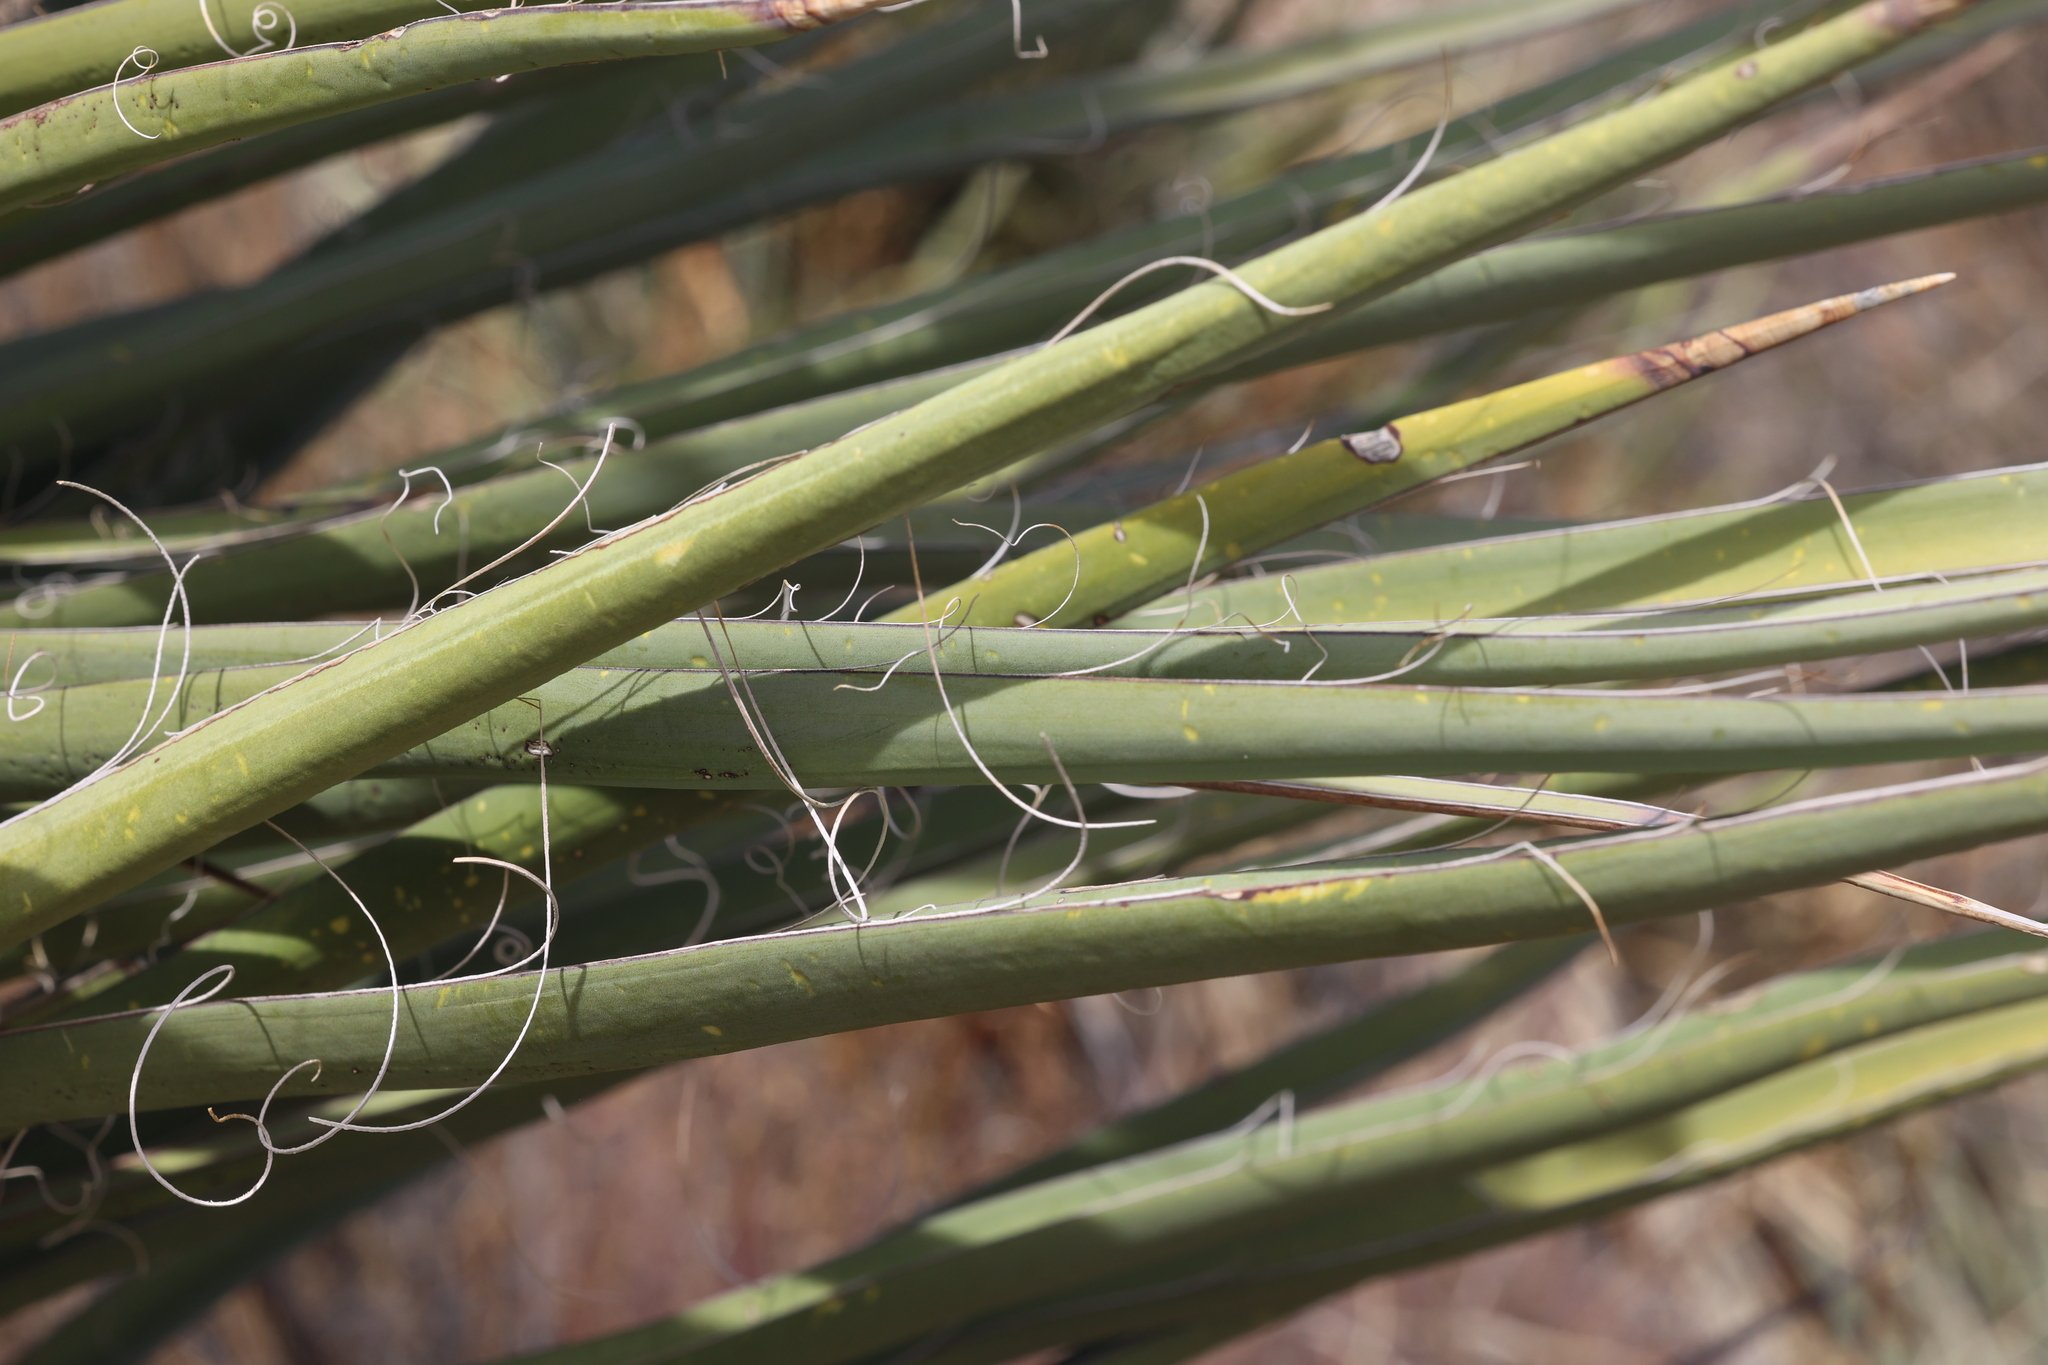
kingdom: Plantae
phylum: Tracheophyta
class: Liliopsida
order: Asparagales
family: Asparagaceae
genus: Yucca
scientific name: Yucca treculiana
